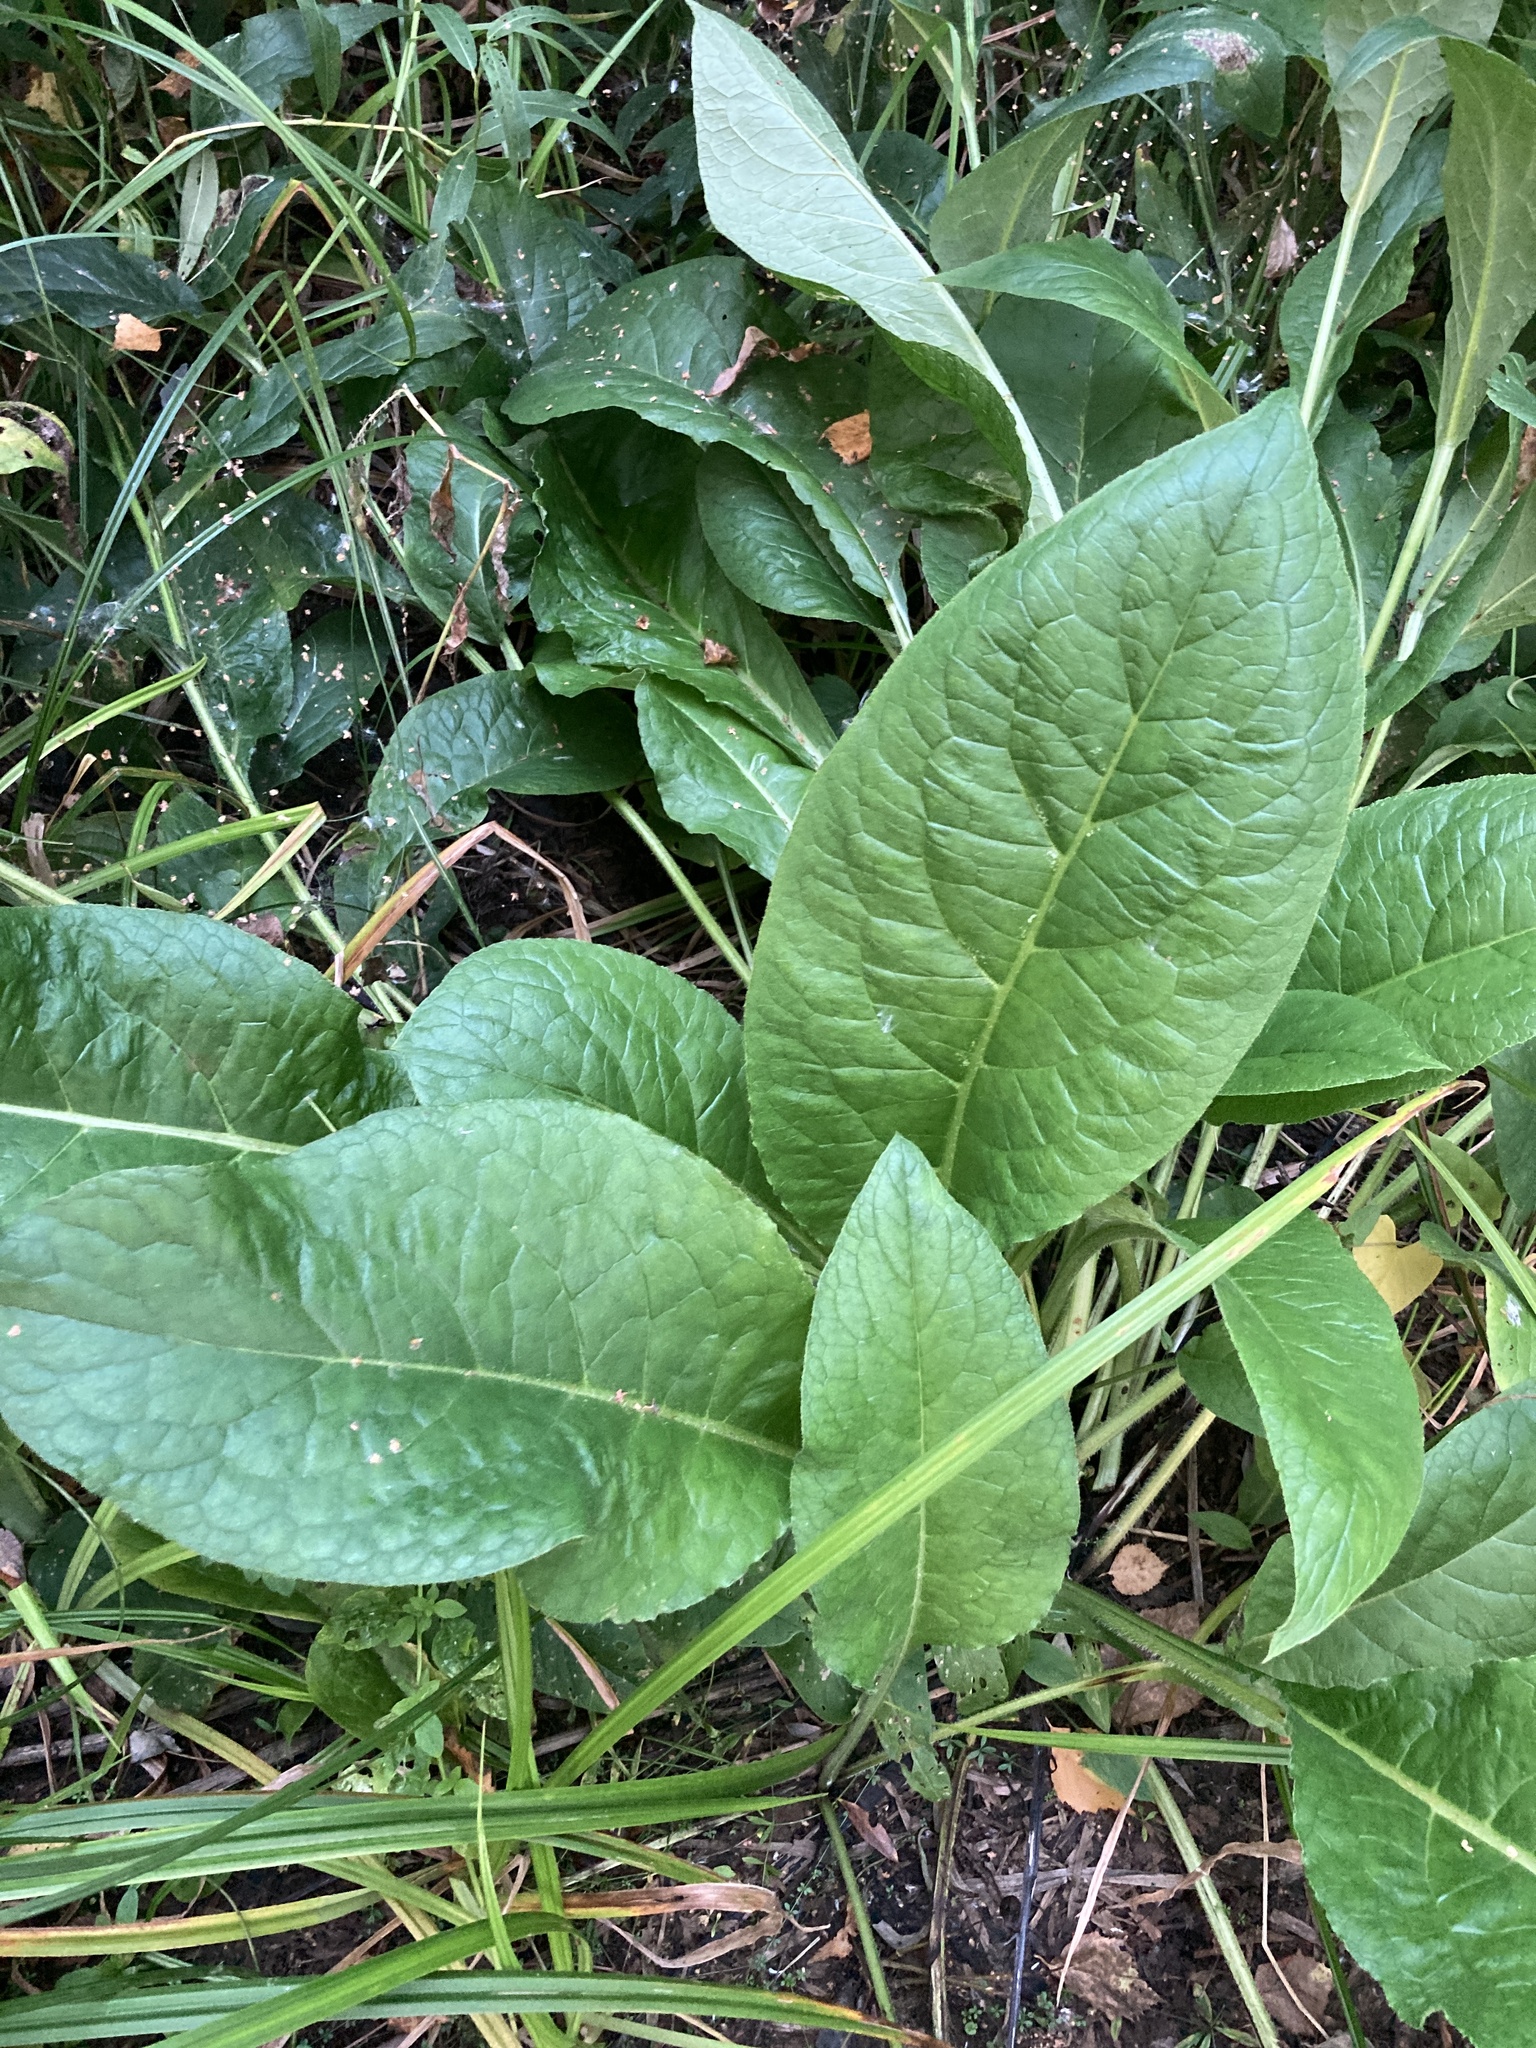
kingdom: Plantae
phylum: Tracheophyta
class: Magnoliopsida
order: Boraginales
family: Boraginaceae
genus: Cynoglossum
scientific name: Cynoglossum officinale
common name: Hound's-tongue
